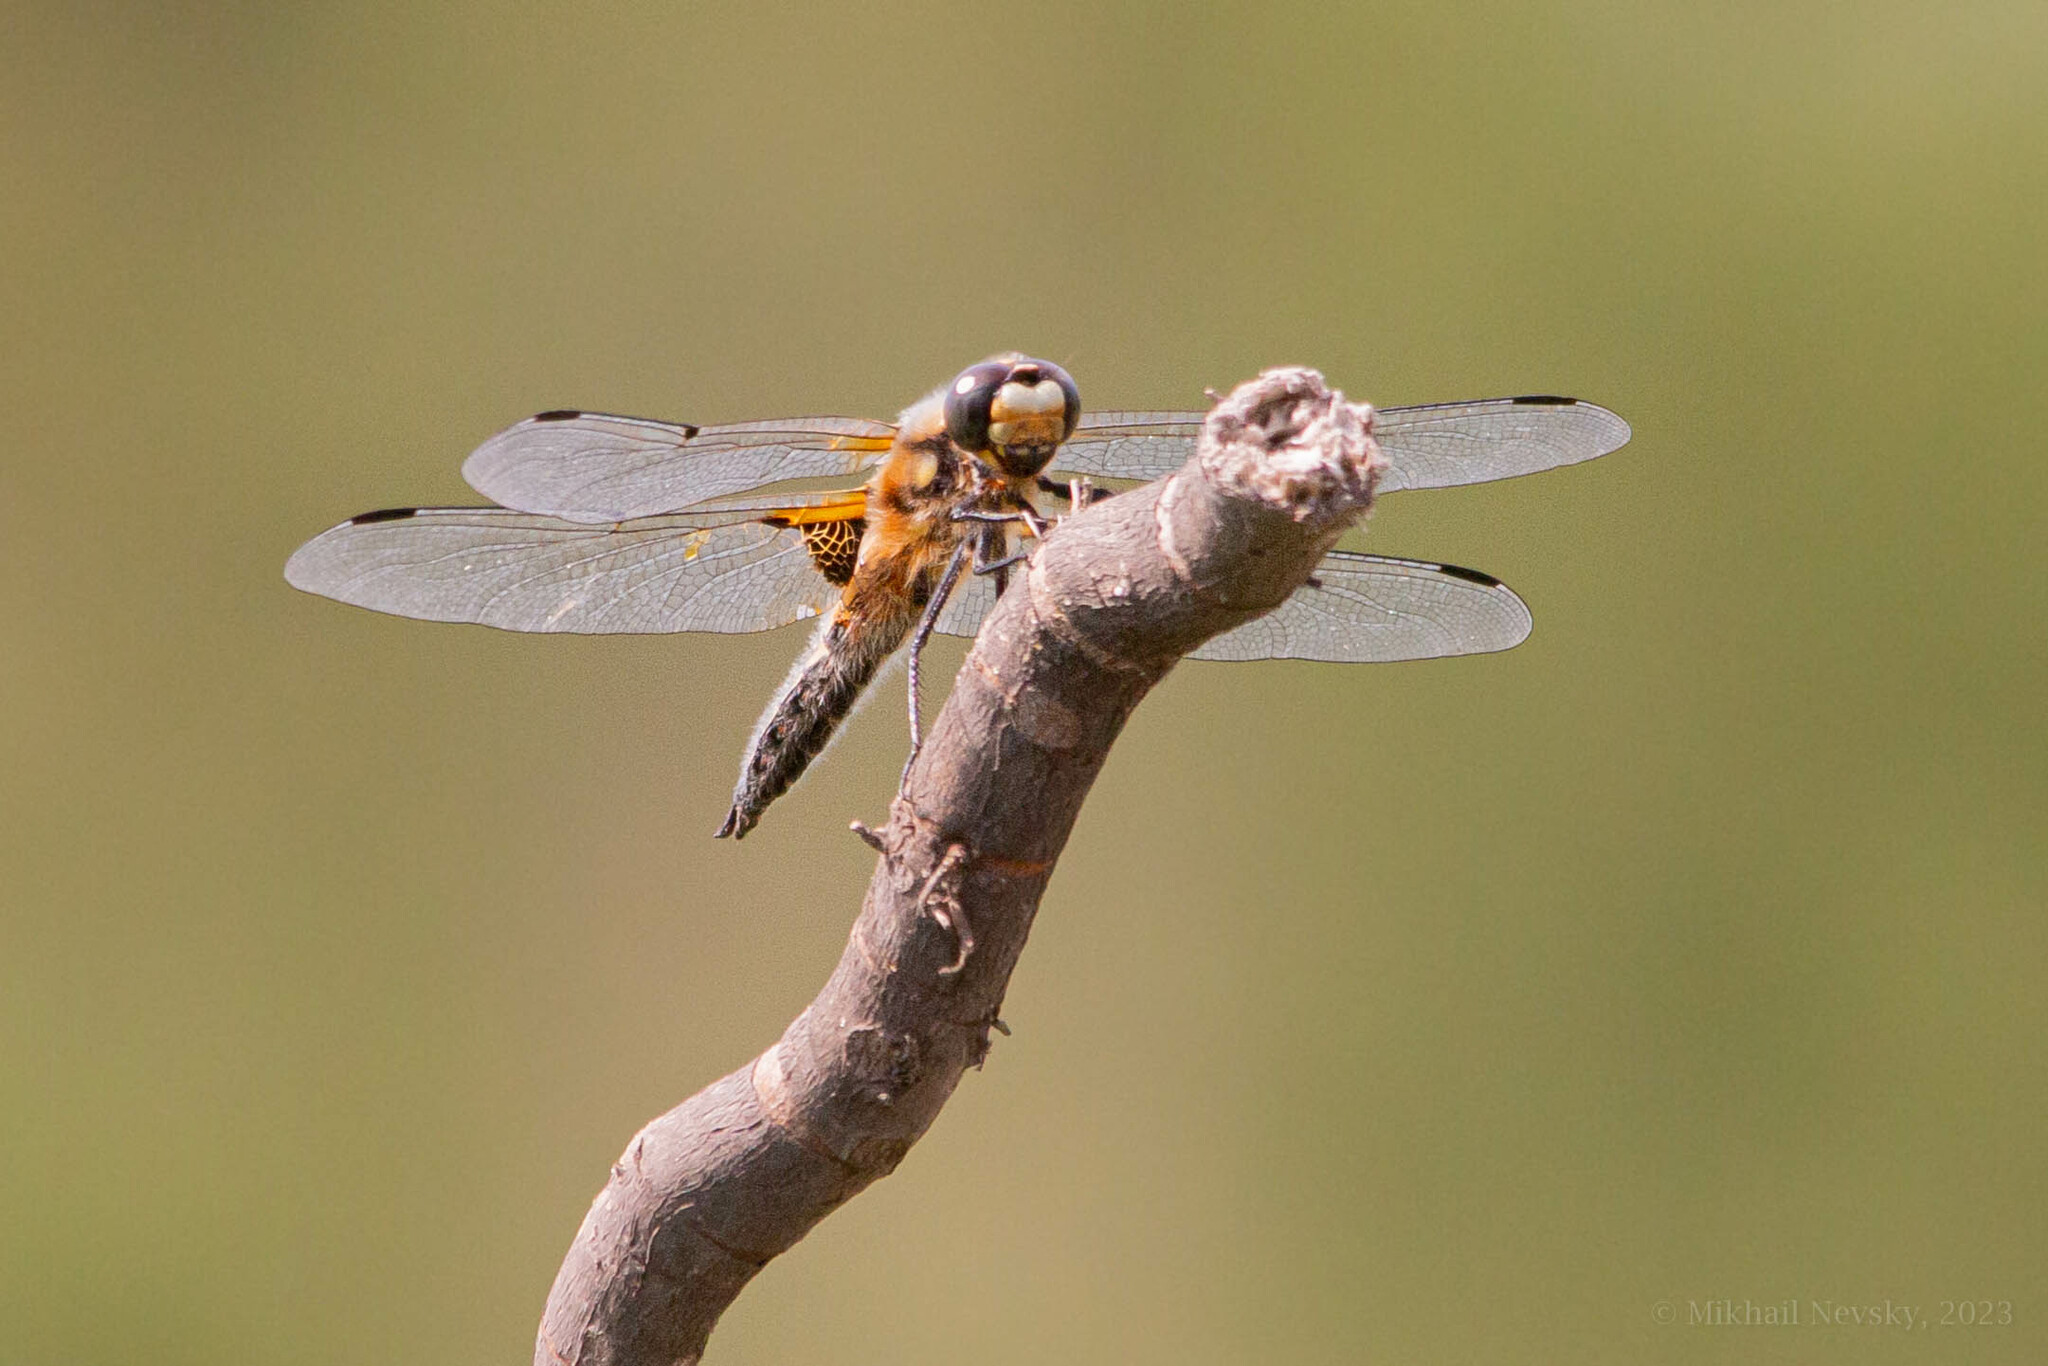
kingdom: Animalia
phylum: Arthropoda
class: Insecta
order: Odonata
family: Libellulidae
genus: Libellula
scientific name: Libellula quadrimaculata
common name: Four-spotted chaser
